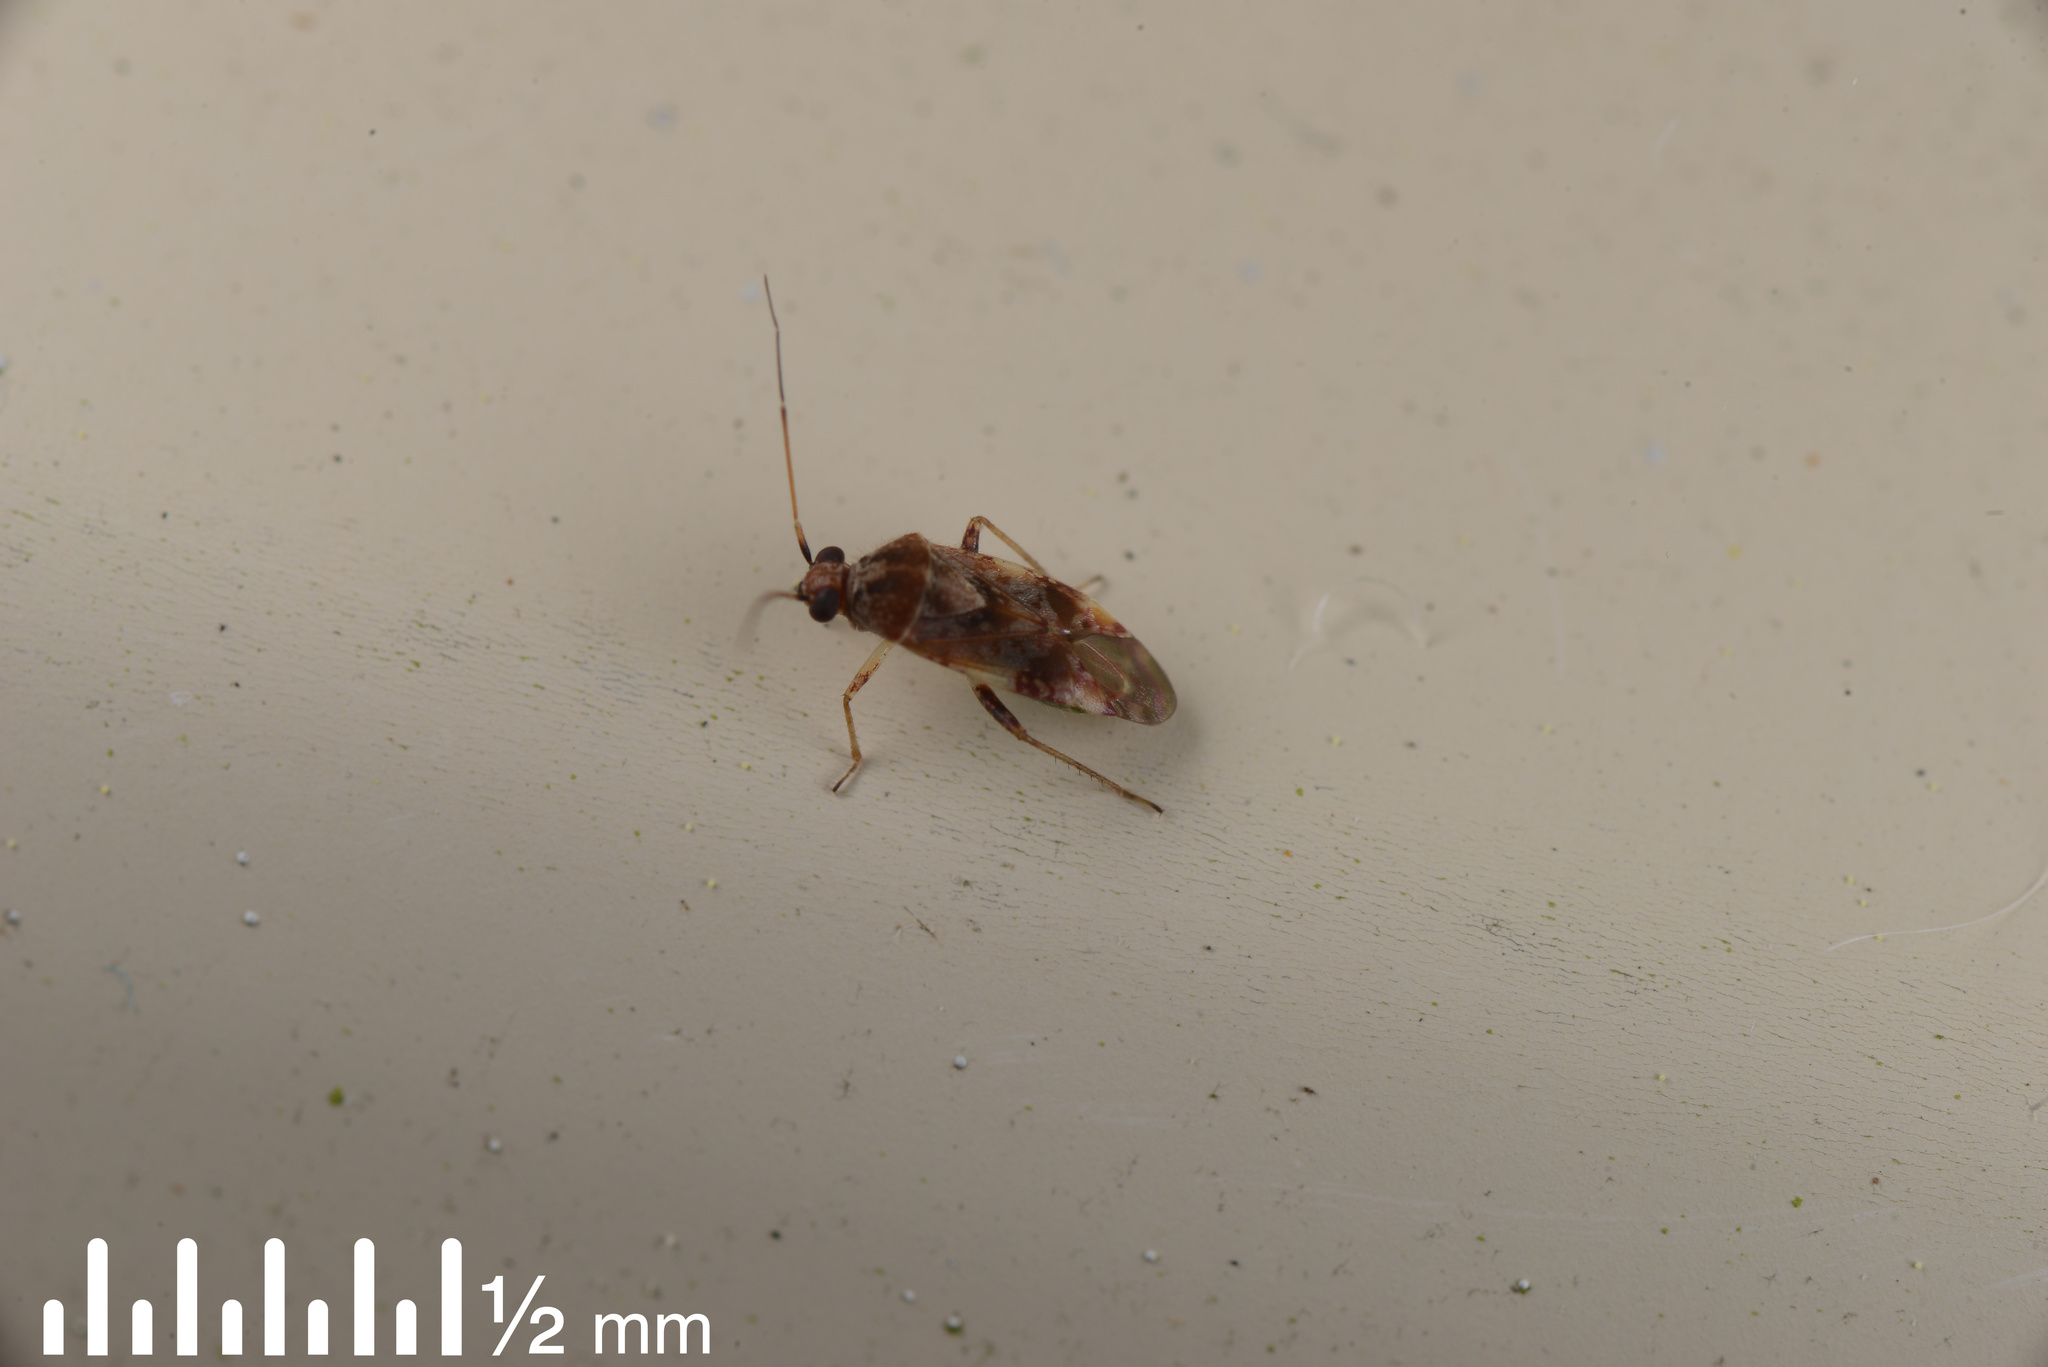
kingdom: Animalia
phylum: Arthropoda
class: Insecta
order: Hemiptera
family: Miridae
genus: Tinginotum
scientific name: Tinginotum minutum
